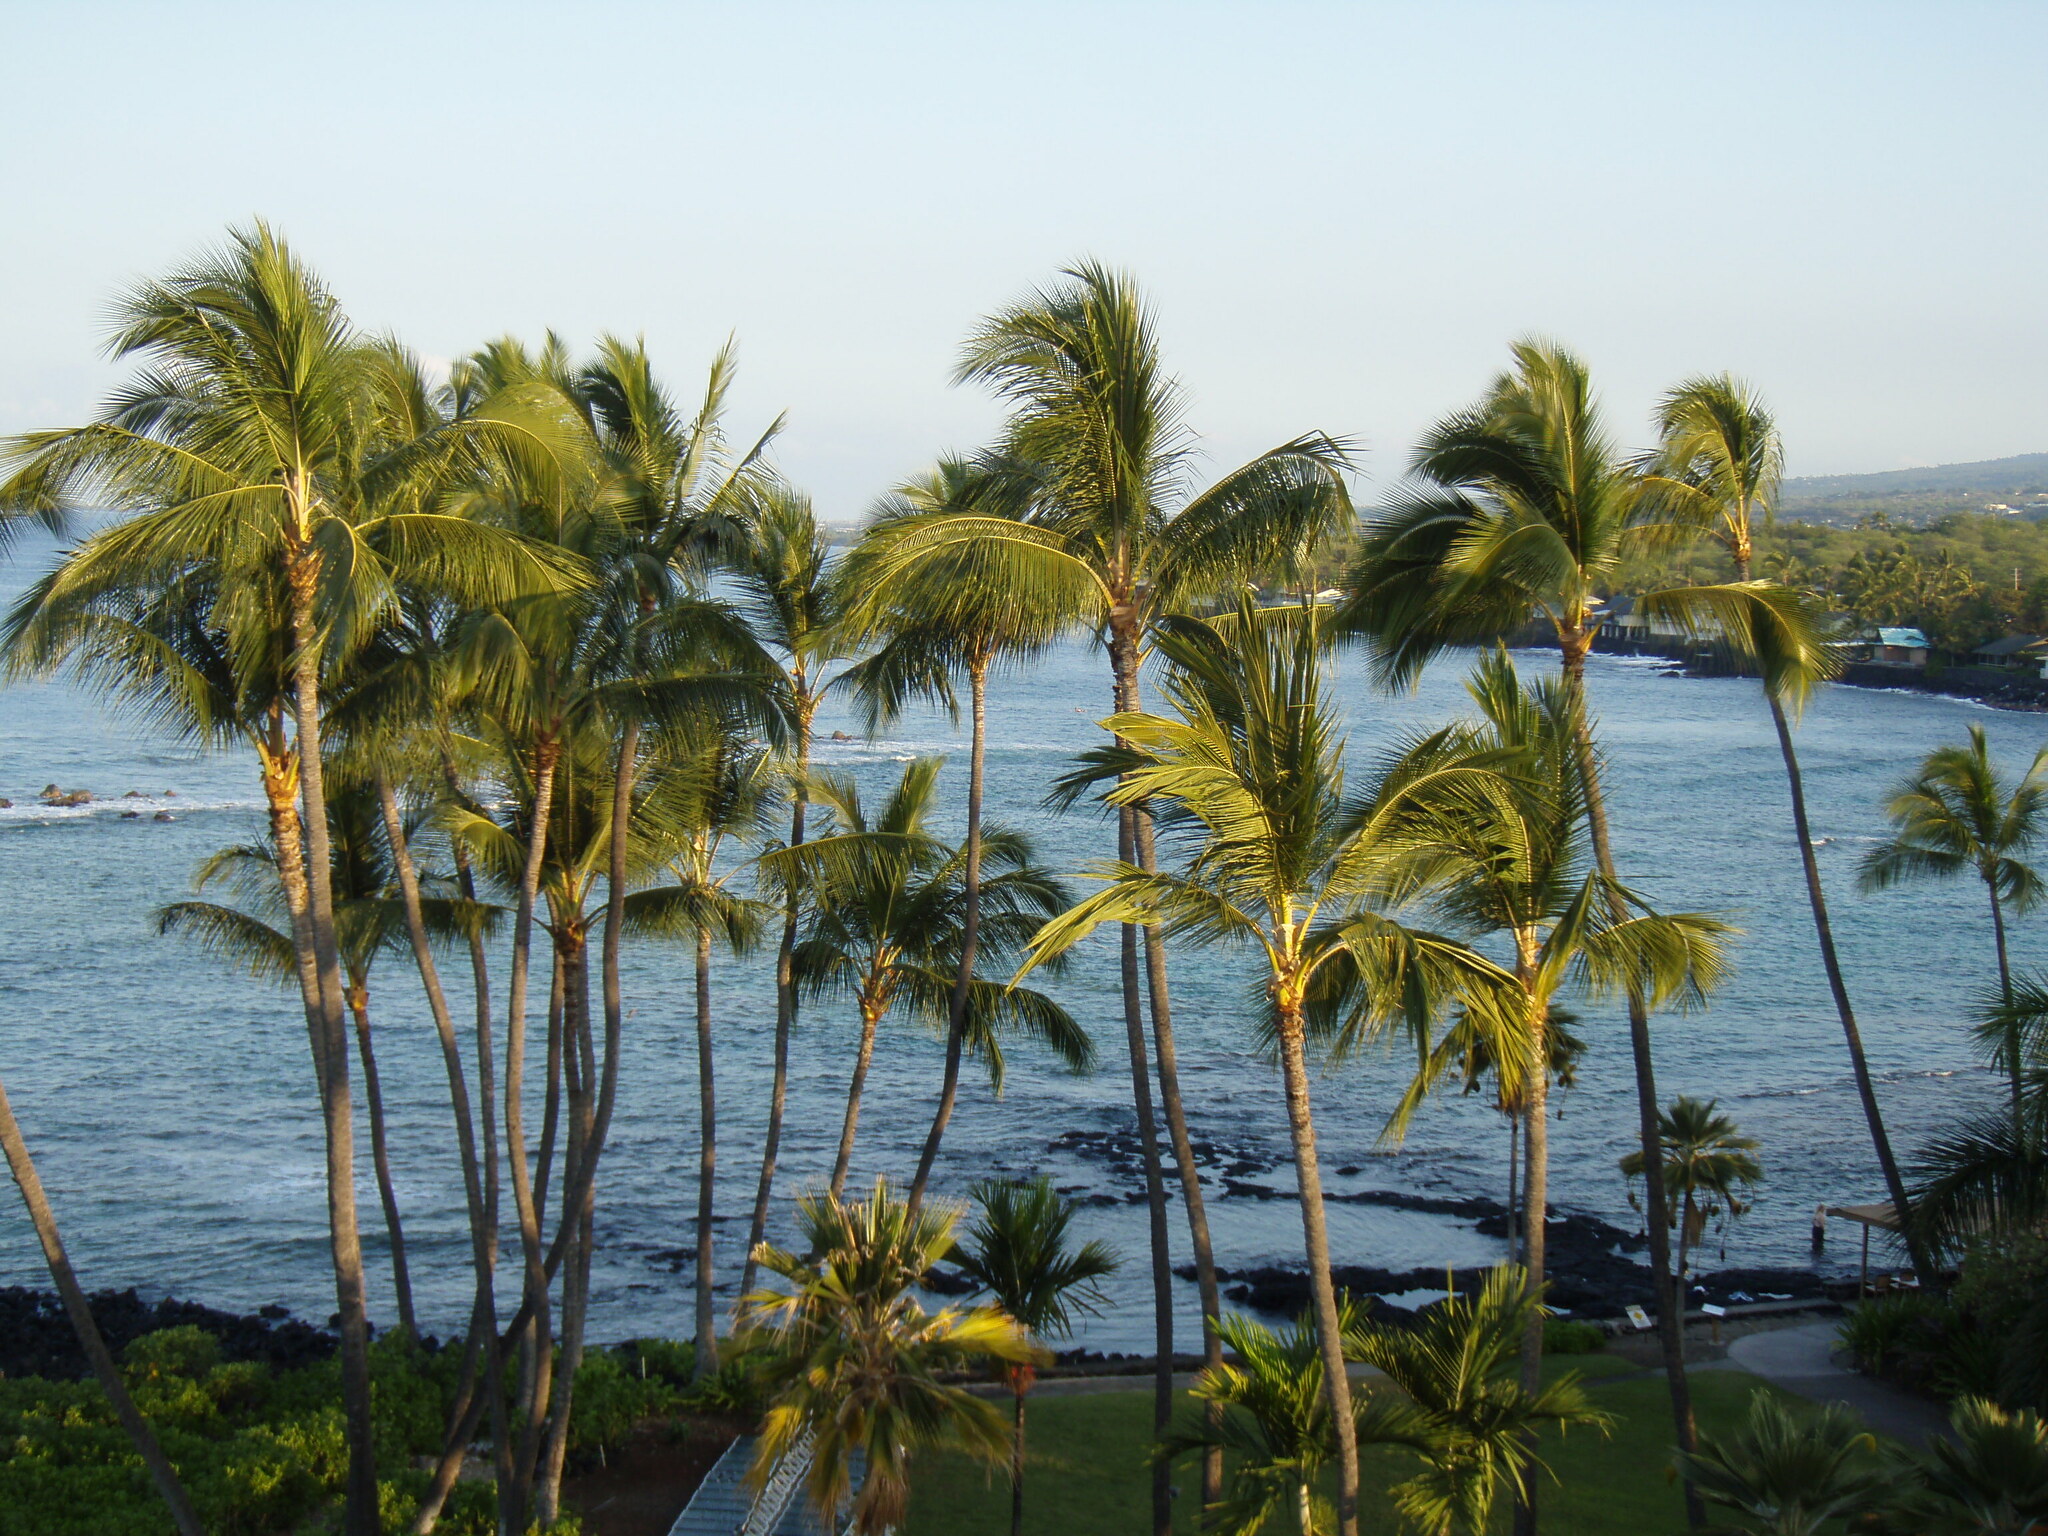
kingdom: Plantae
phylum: Tracheophyta
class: Liliopsida
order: Arecales
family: Arecaceae
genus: Cocos
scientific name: Cocos nucifera
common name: Coconut palm
